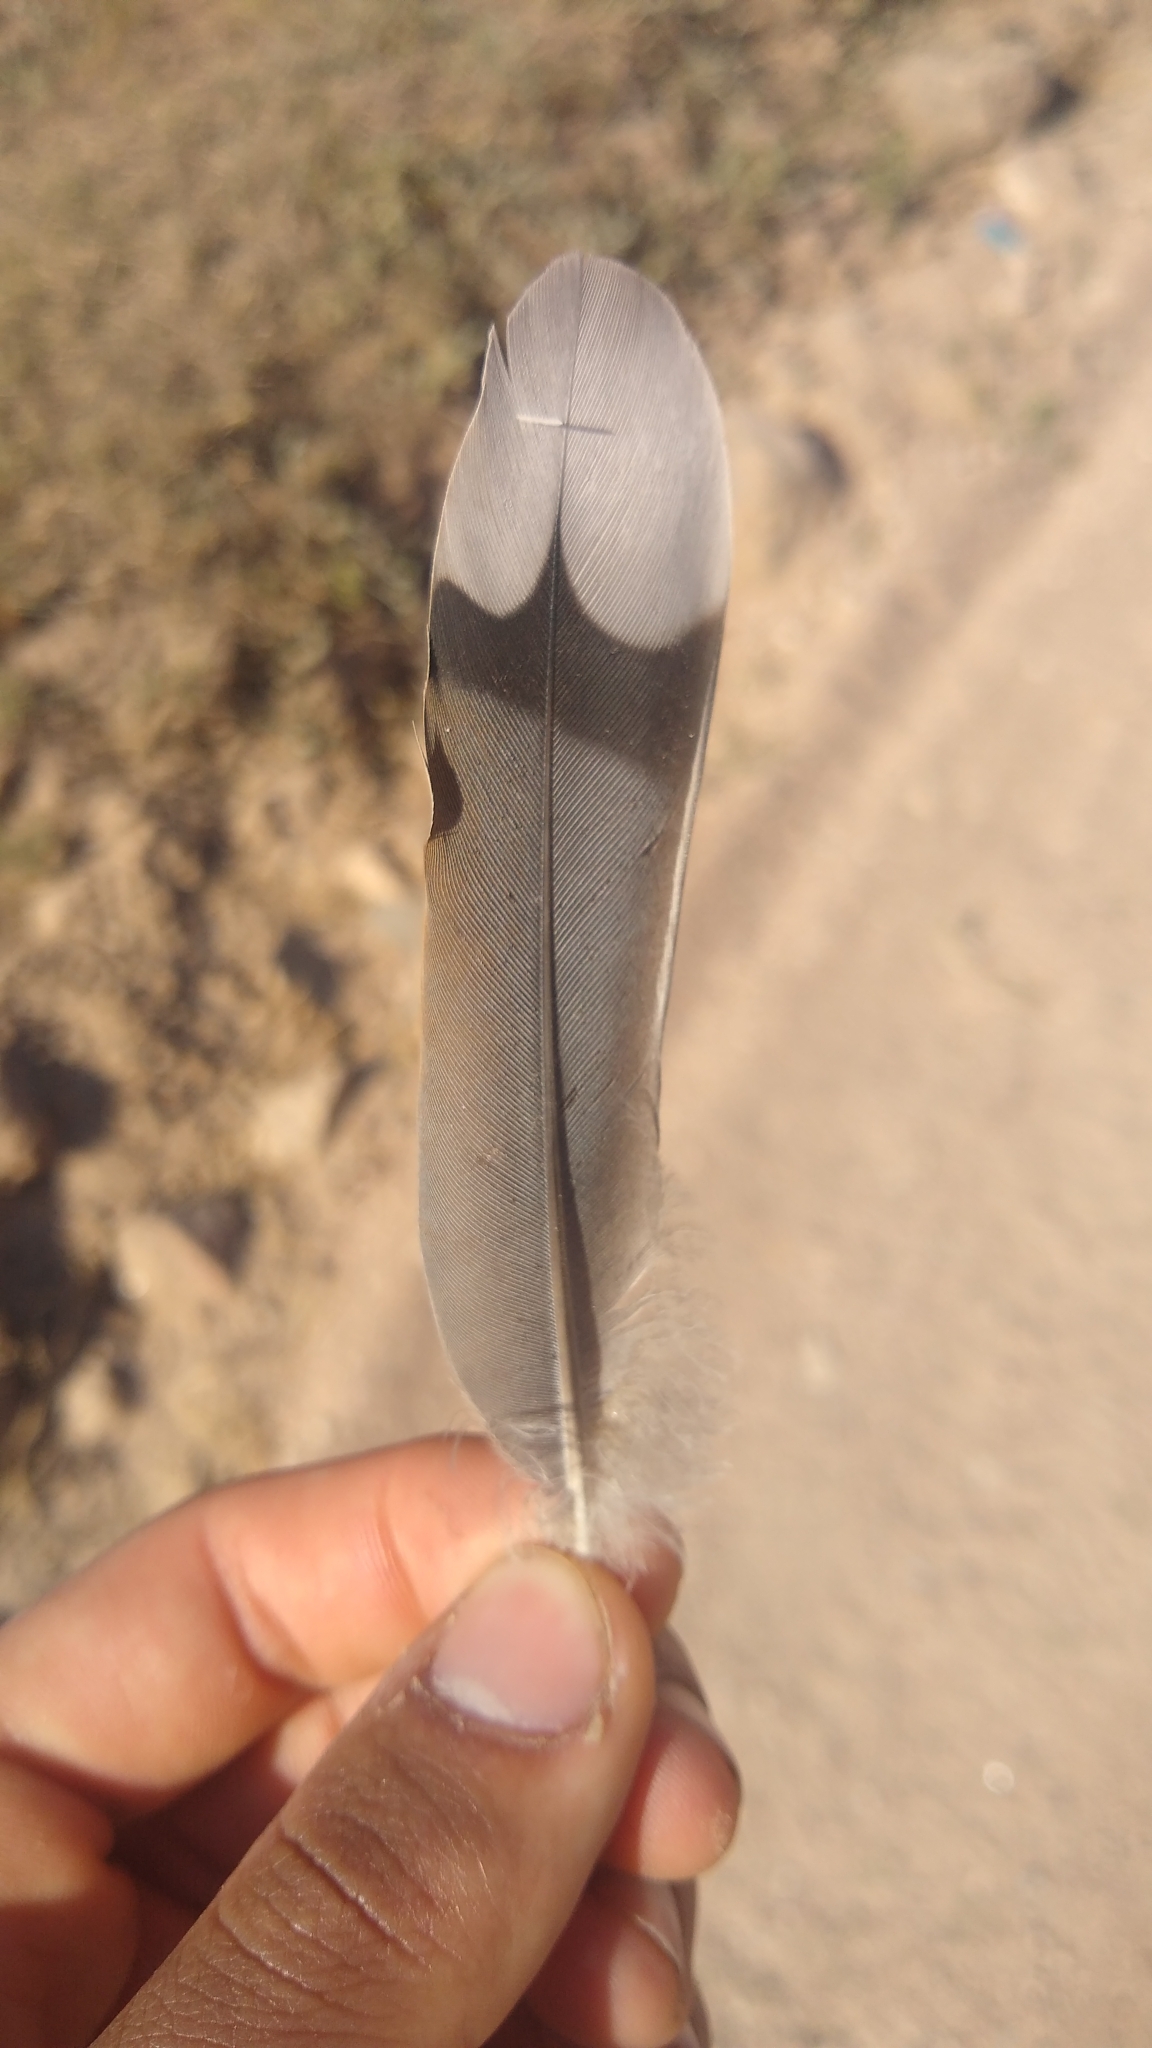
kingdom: Animalia
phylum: Chordata
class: Aves
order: Columbiformes
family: Columbidae
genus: Zenaida
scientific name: Zenaida auriculata
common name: Eared dove
